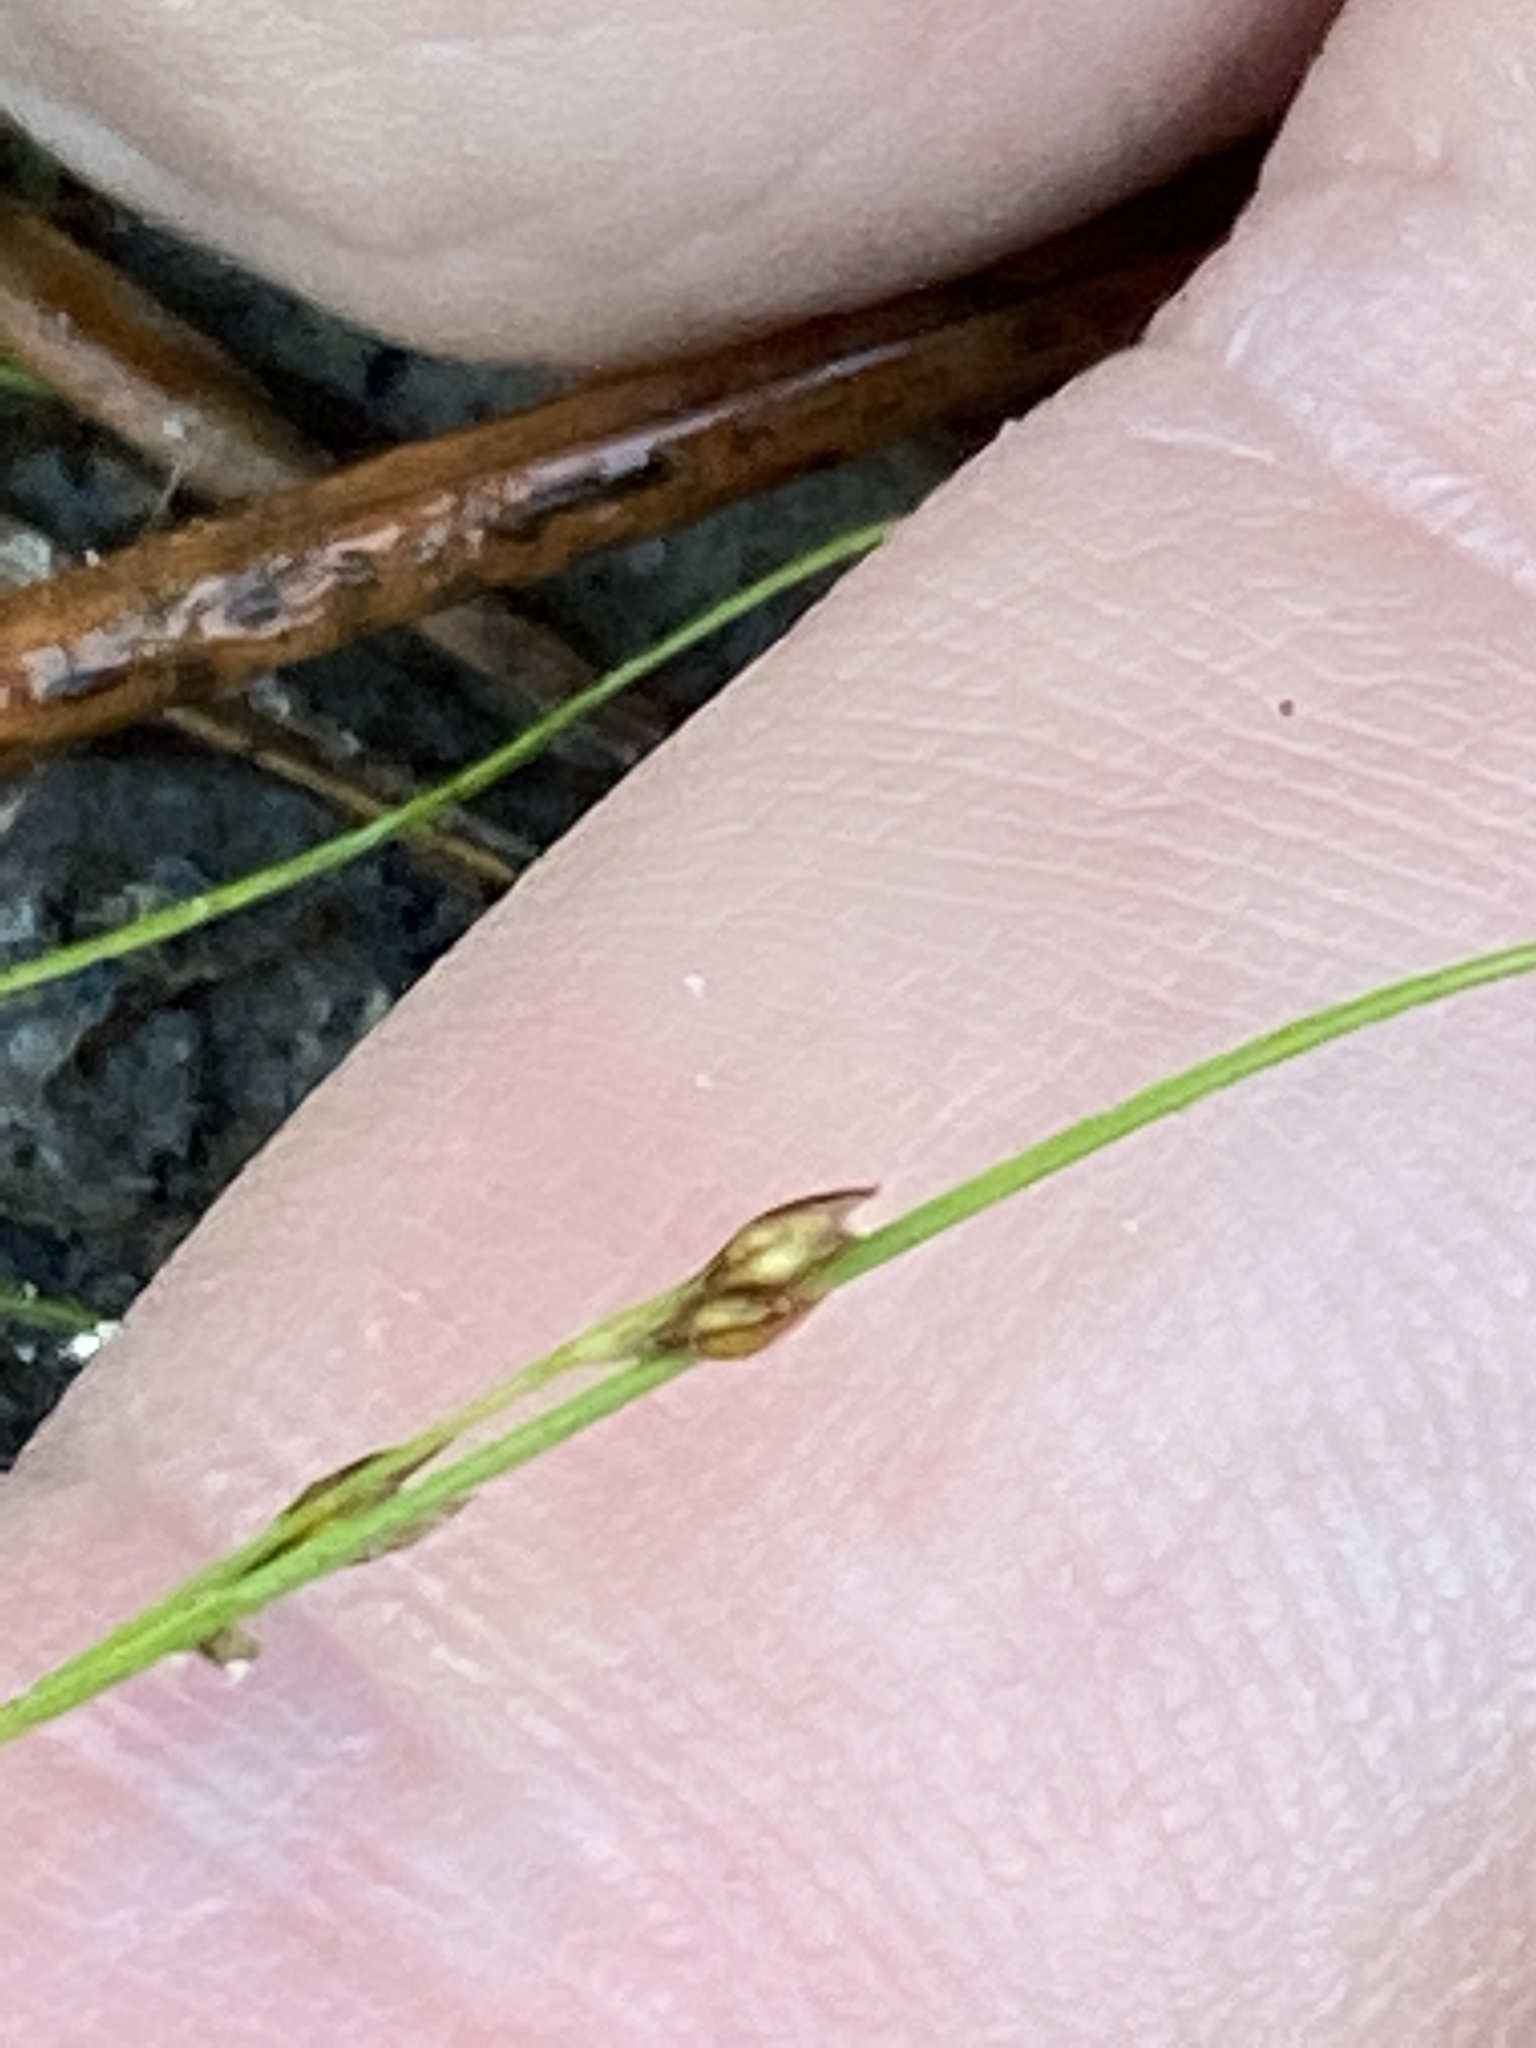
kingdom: Plantae
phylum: Tracheophyta
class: Liliopsida
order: Poales
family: Cyperaceae
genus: Rhynchospora
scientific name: Rhynchospora thornei
